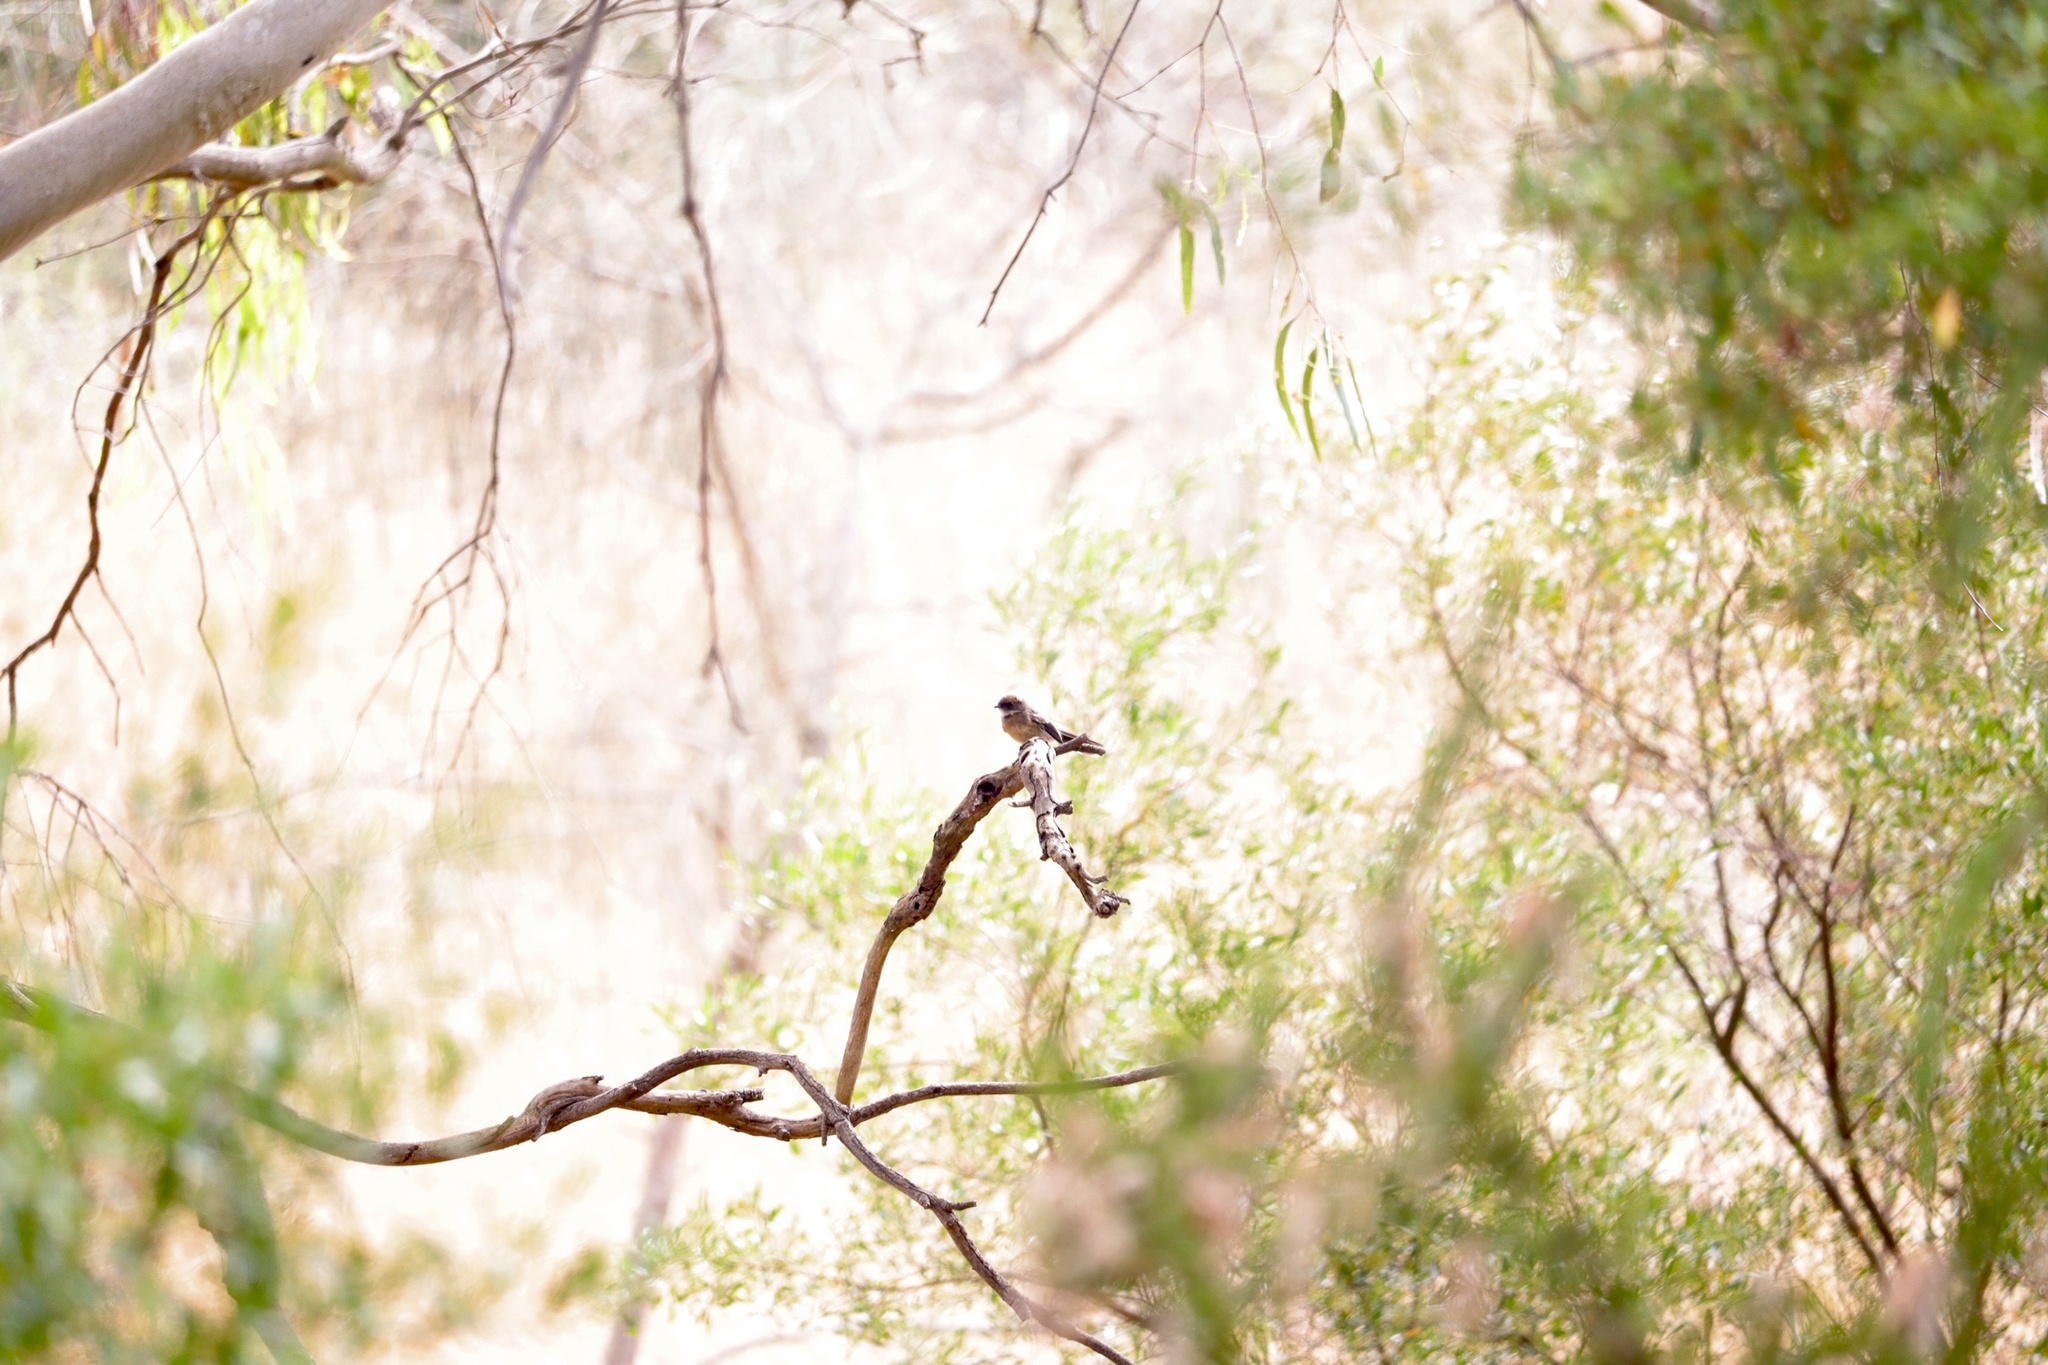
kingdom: Animalia
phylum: Chordata
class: Aves
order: Passeriformes
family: Rhipiduridae
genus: Rhipidura
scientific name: Rhipidura albiscapa
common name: Grey fantail
